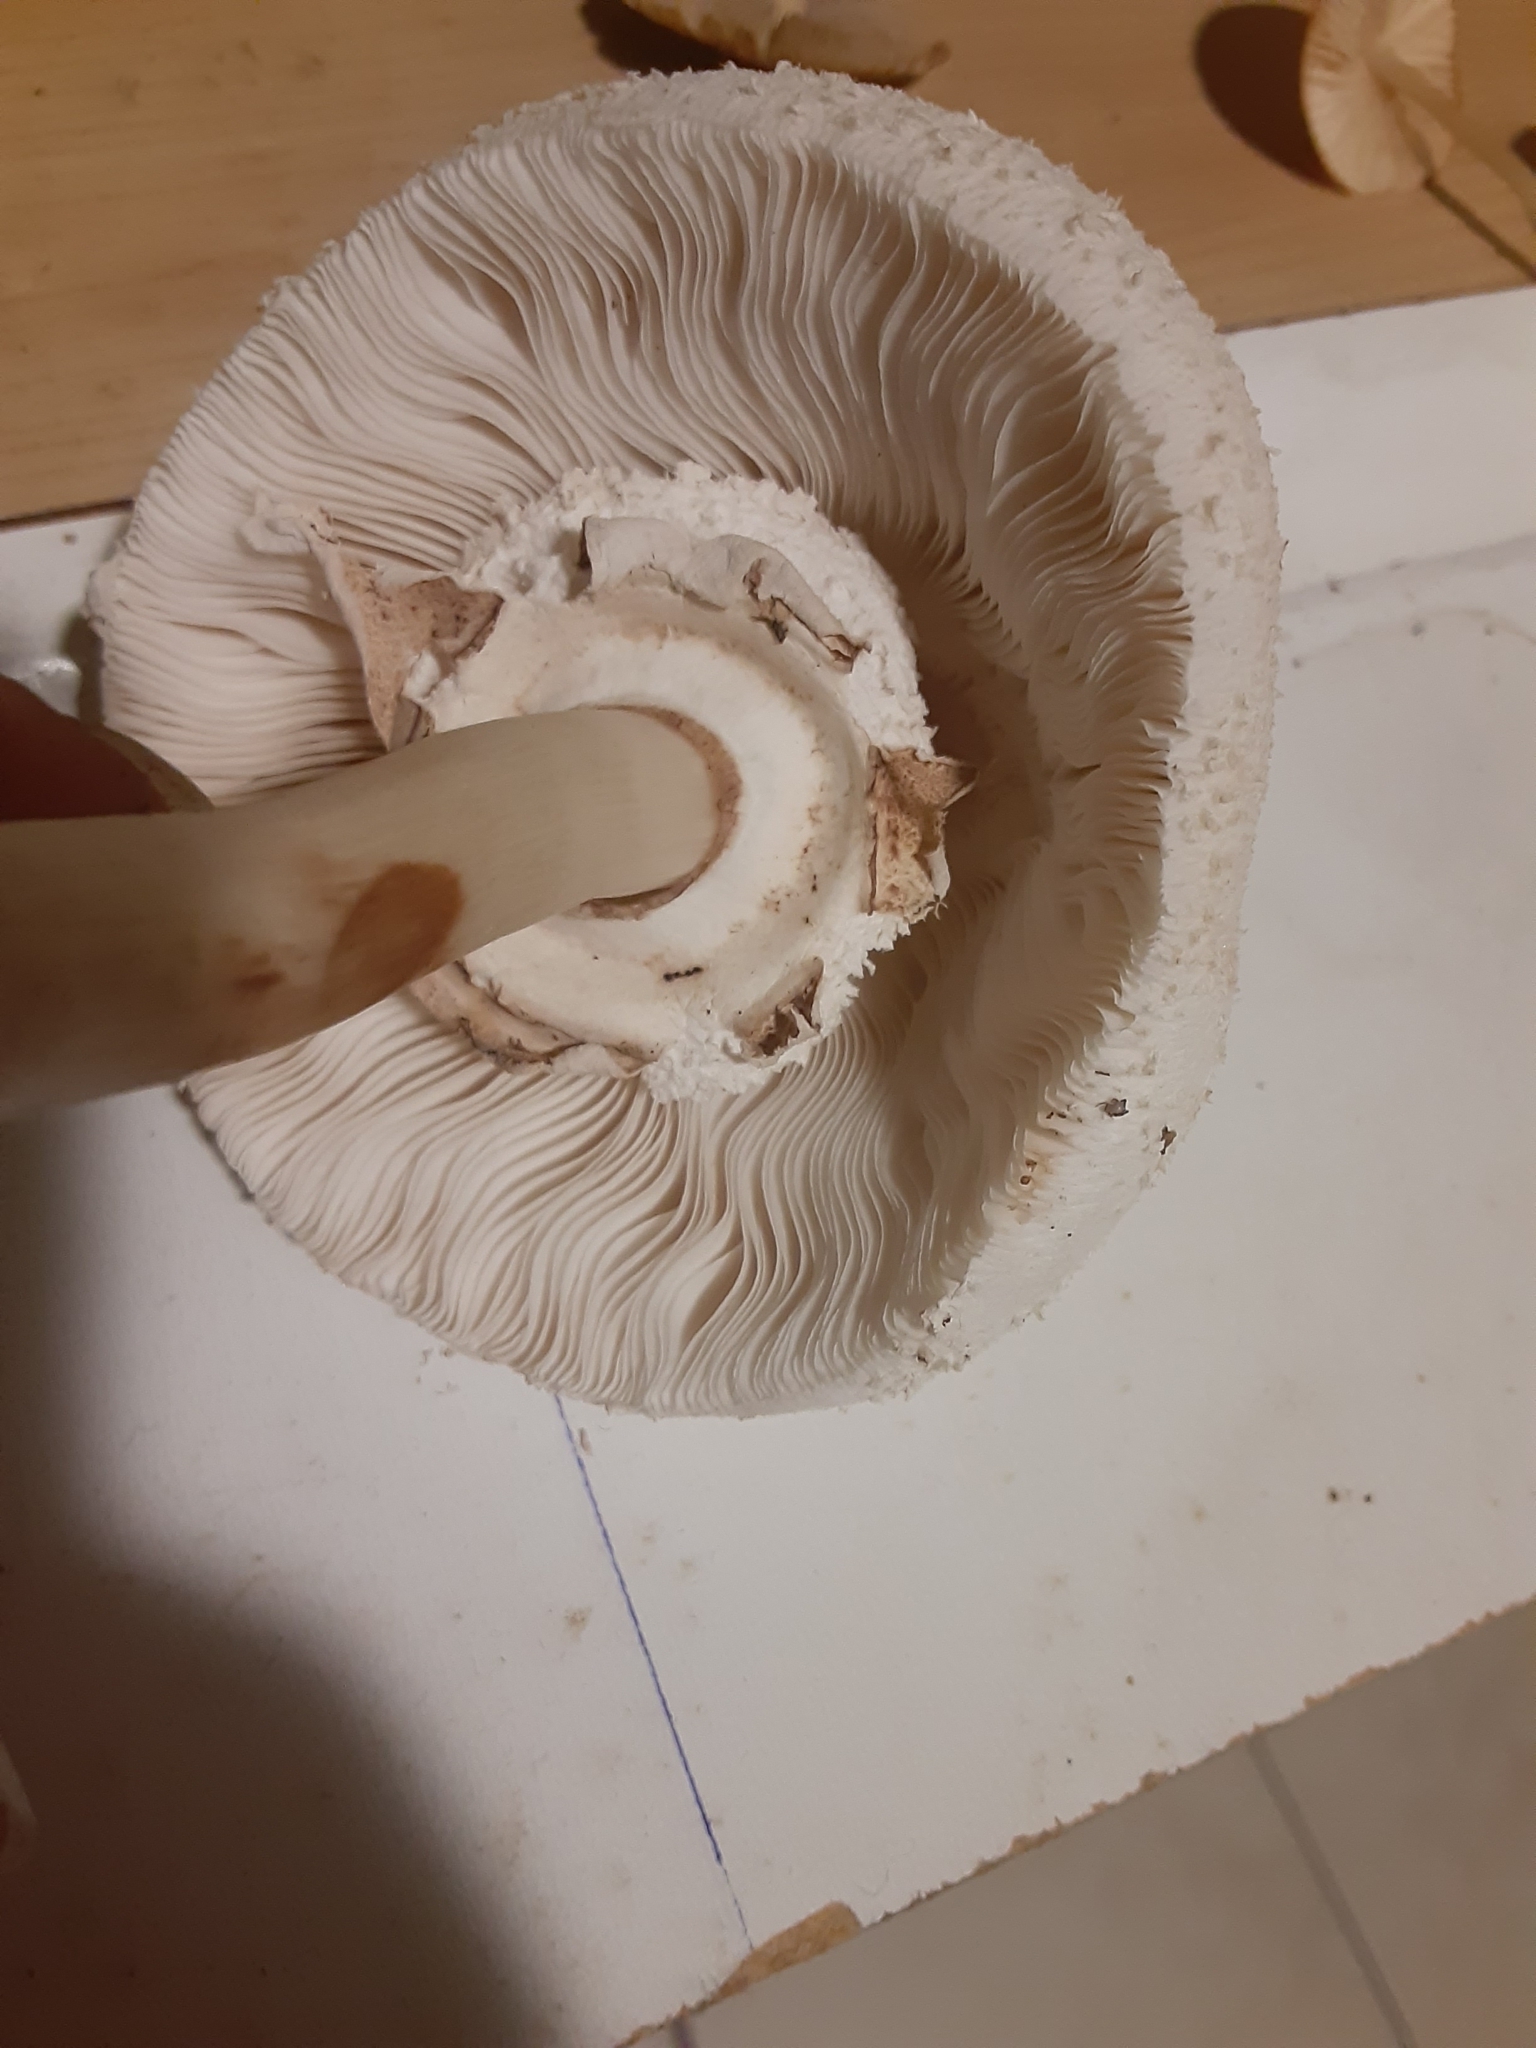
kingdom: Fungi
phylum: Basidiomycota
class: Agaricomycetes
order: Agaricales
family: Agaricaceae
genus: Chlorophyllum
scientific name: Chlorophyllum molybdites
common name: False parasol
